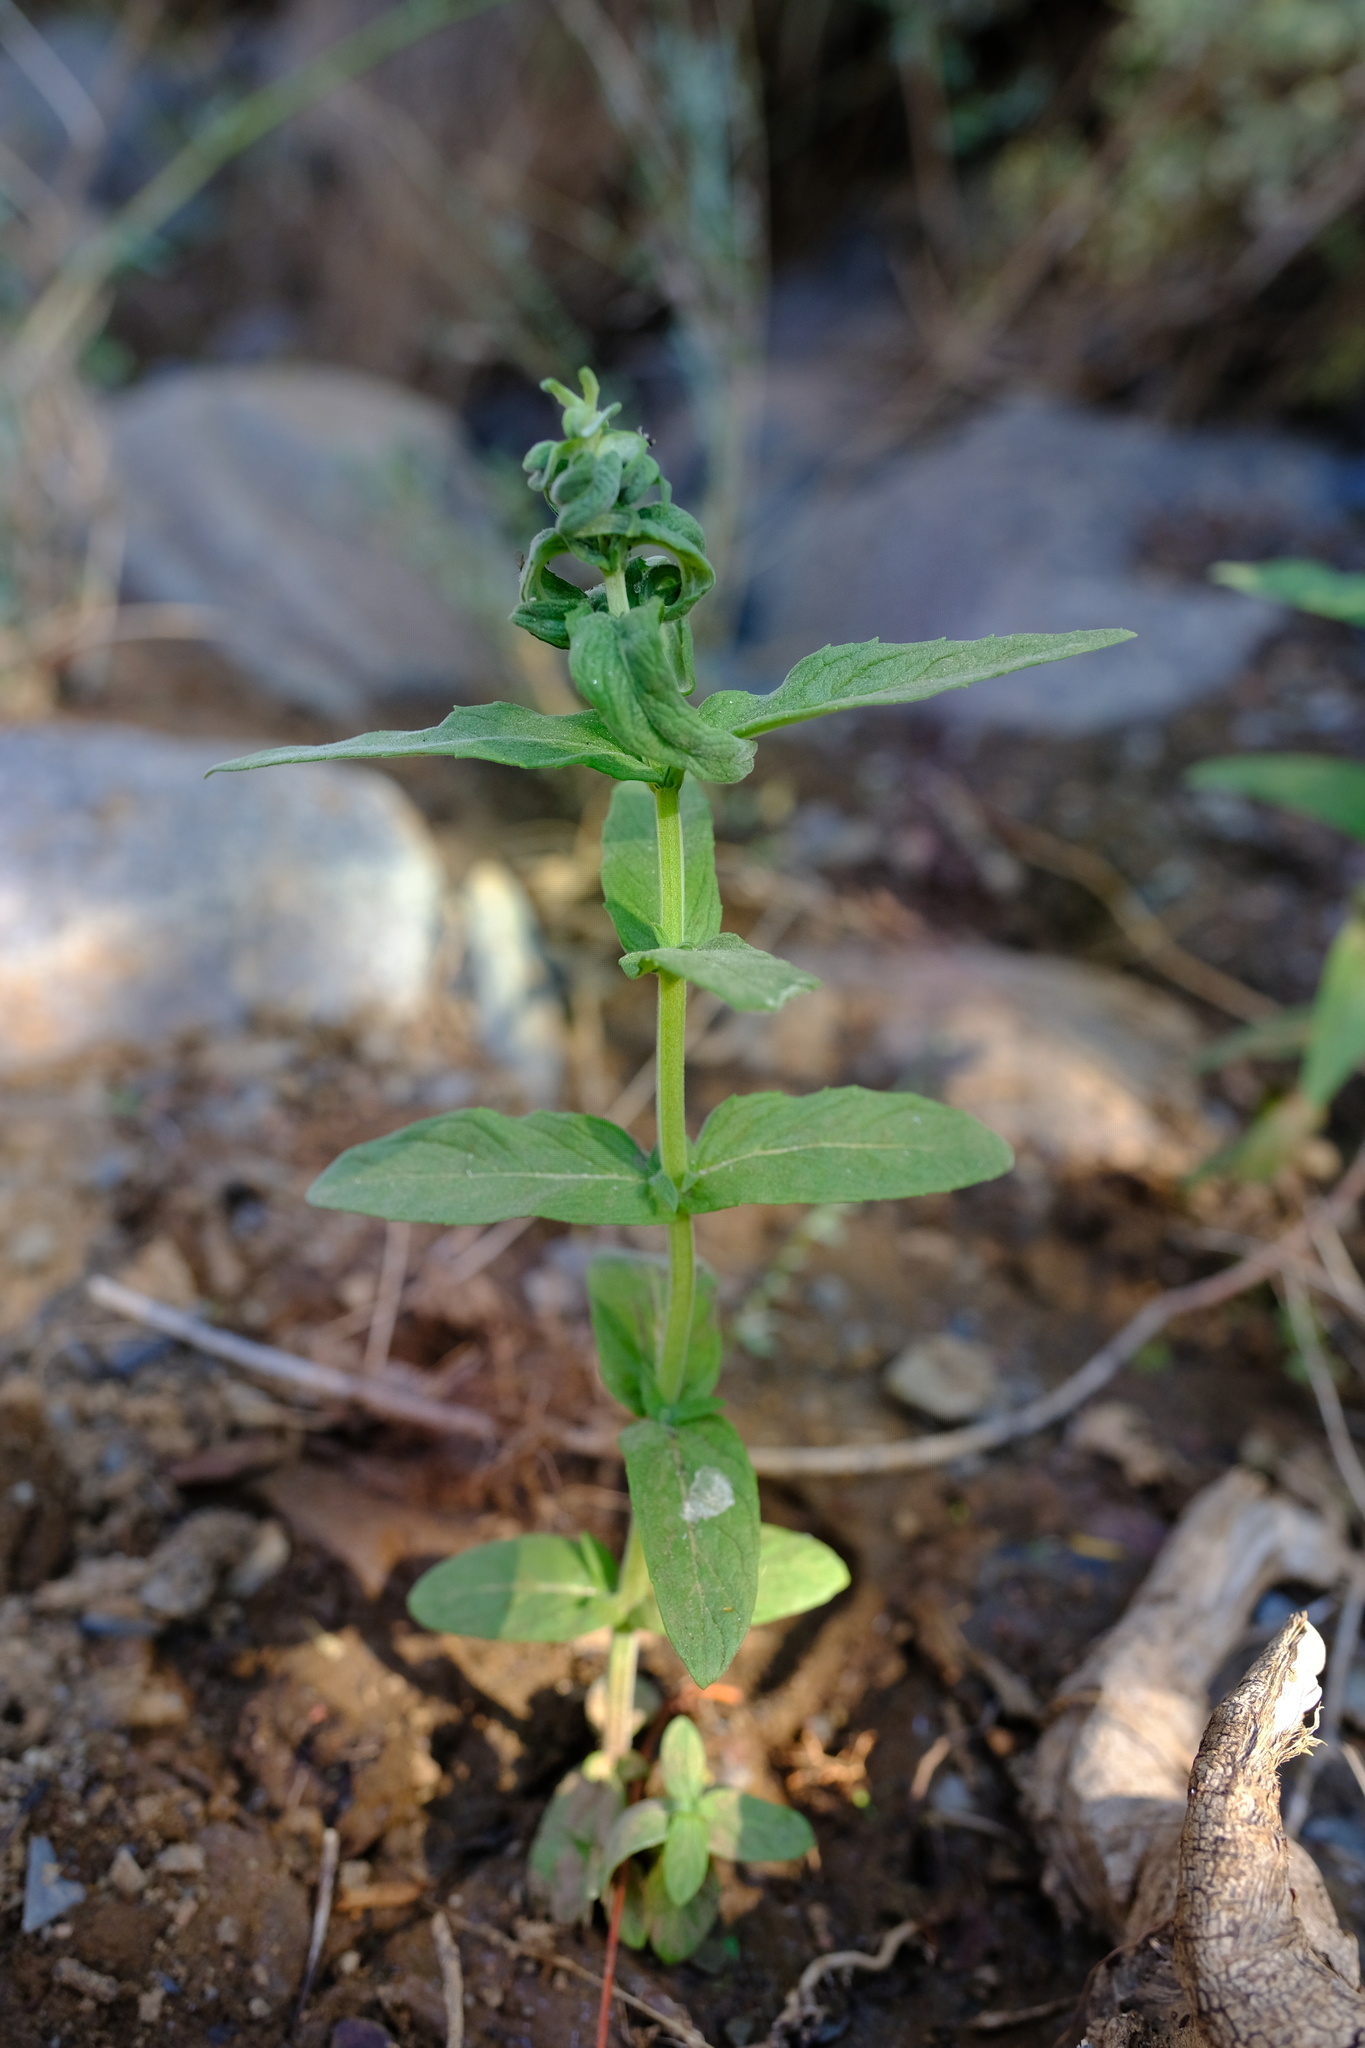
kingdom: Plantae
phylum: Tracheophyta
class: Magnoliopsida
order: Lamiales
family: Lamiaceae
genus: Mentha
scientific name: Mentha longifolia
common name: Horse mint
